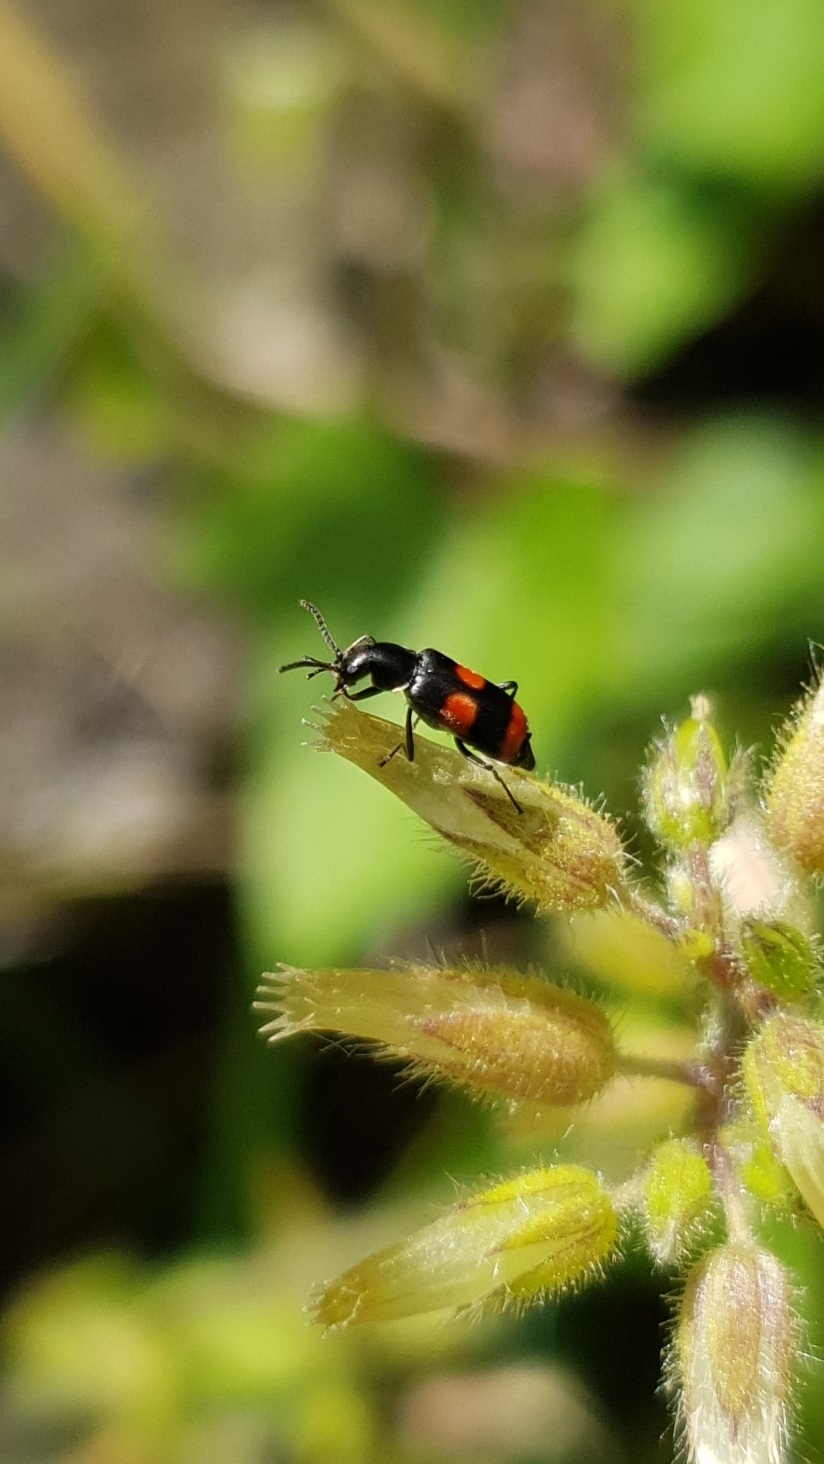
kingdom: Animalia
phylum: Arthropoda
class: Insecta
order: Coleoptera
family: Melyridae
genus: Anthocomus
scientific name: Anthocomus fasciatus
